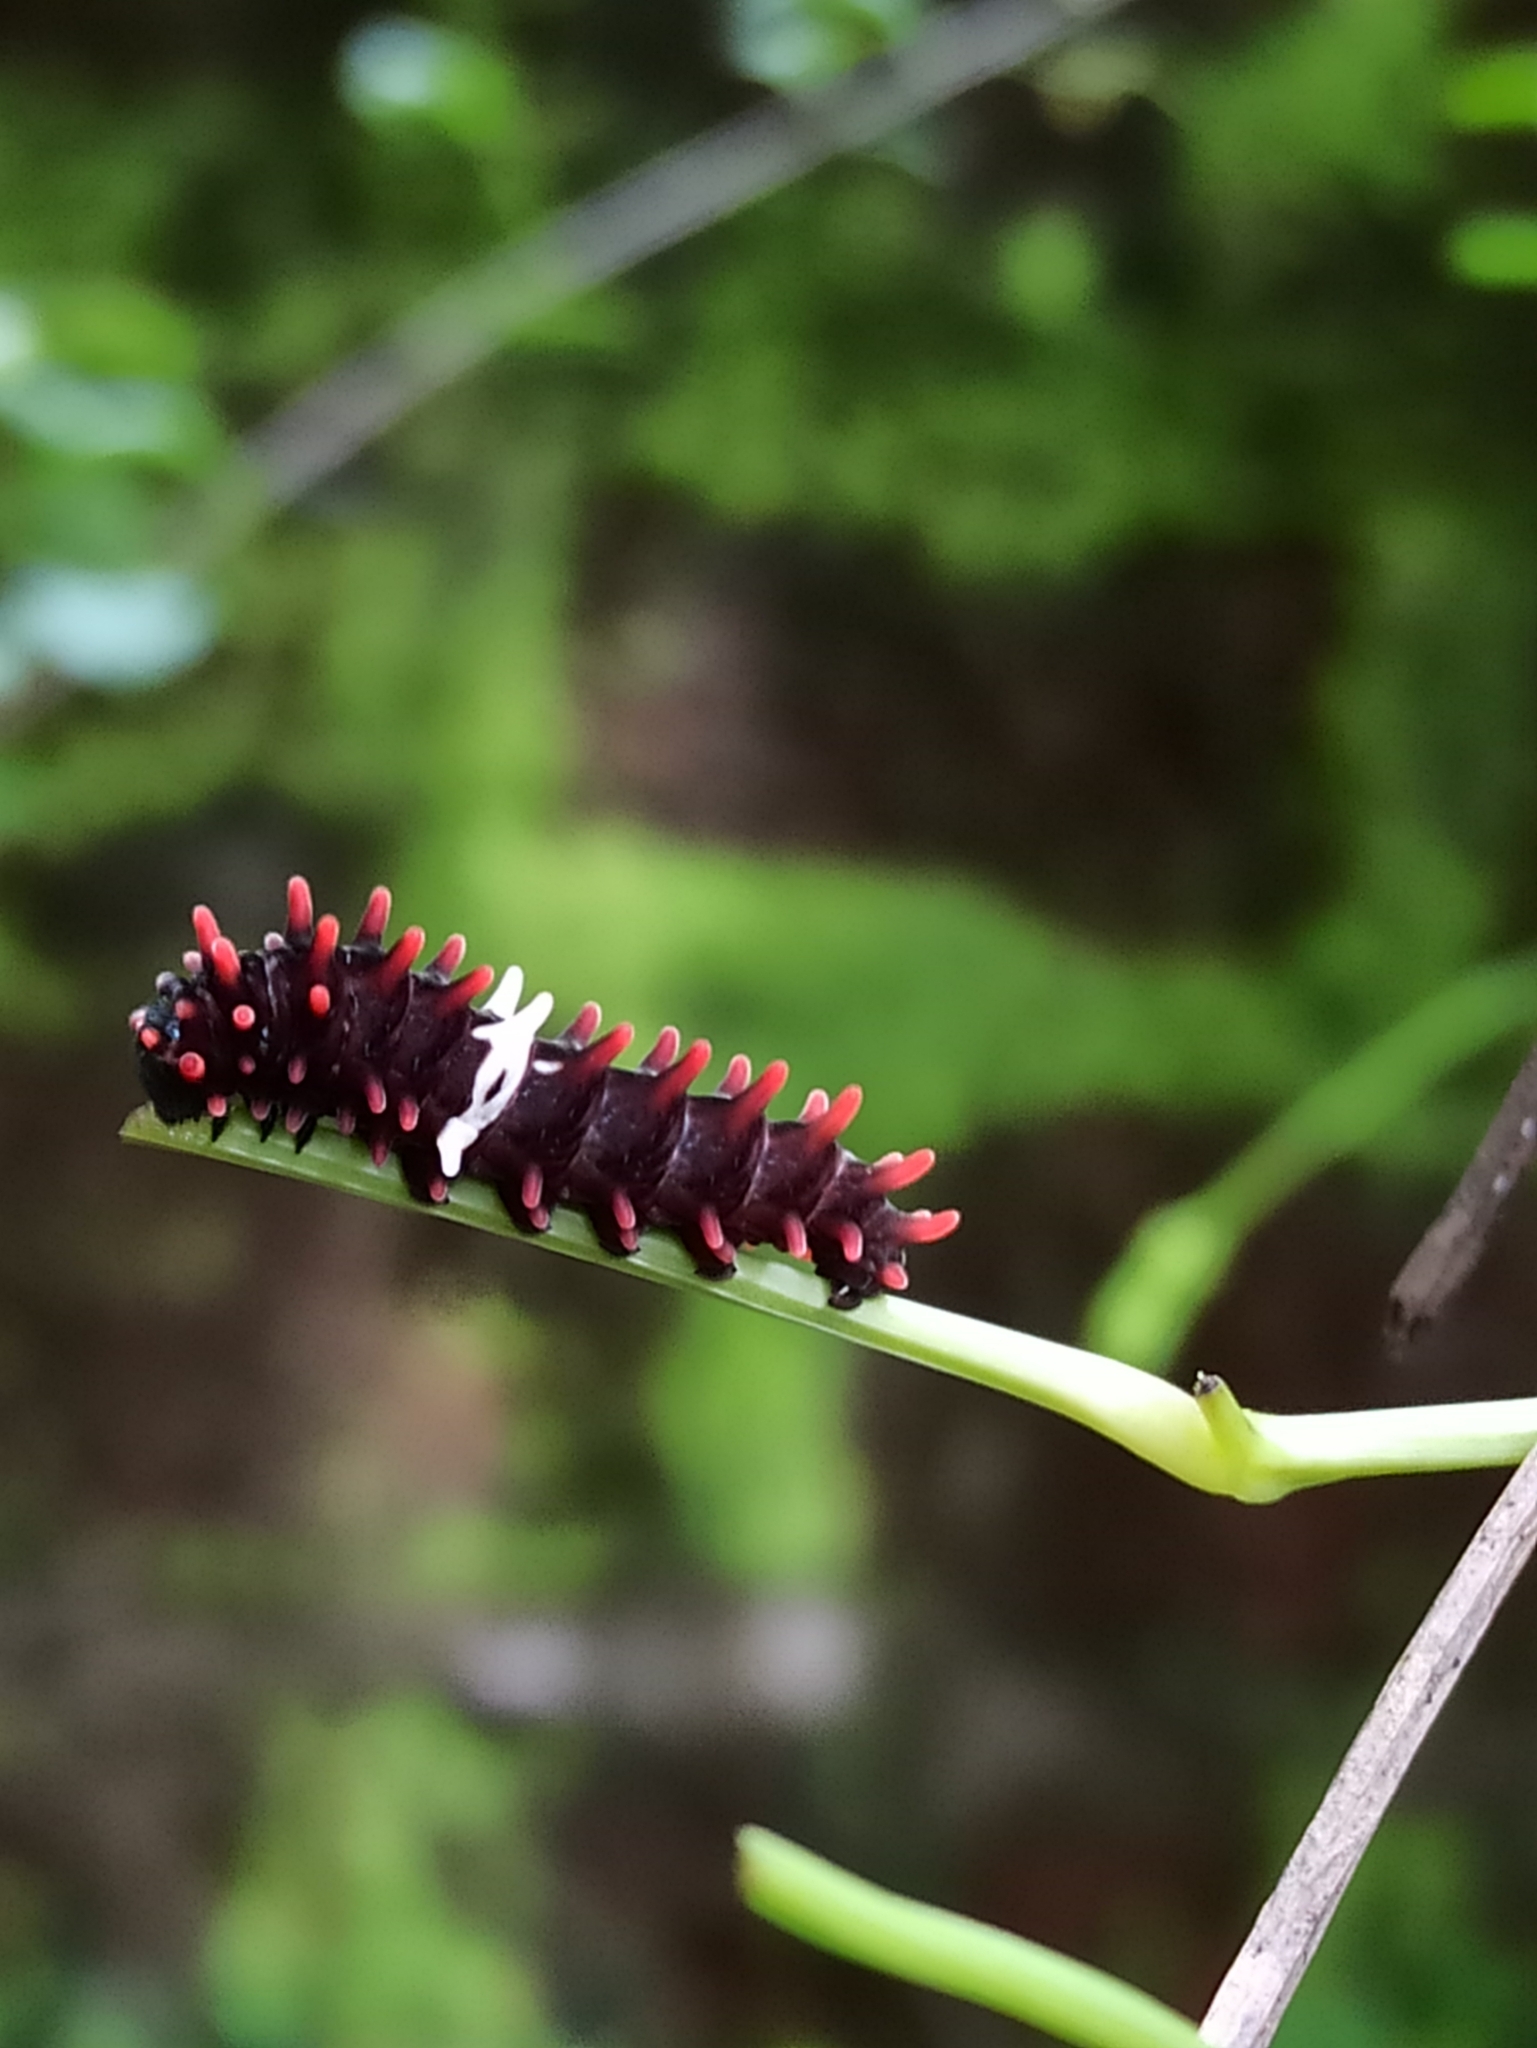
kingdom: Animalia
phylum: Arthropoda
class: Insecta
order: Lepidoptera
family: Papilionidae
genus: Pachliopta
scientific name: Pachliopta aristolochiae
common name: Common rose
